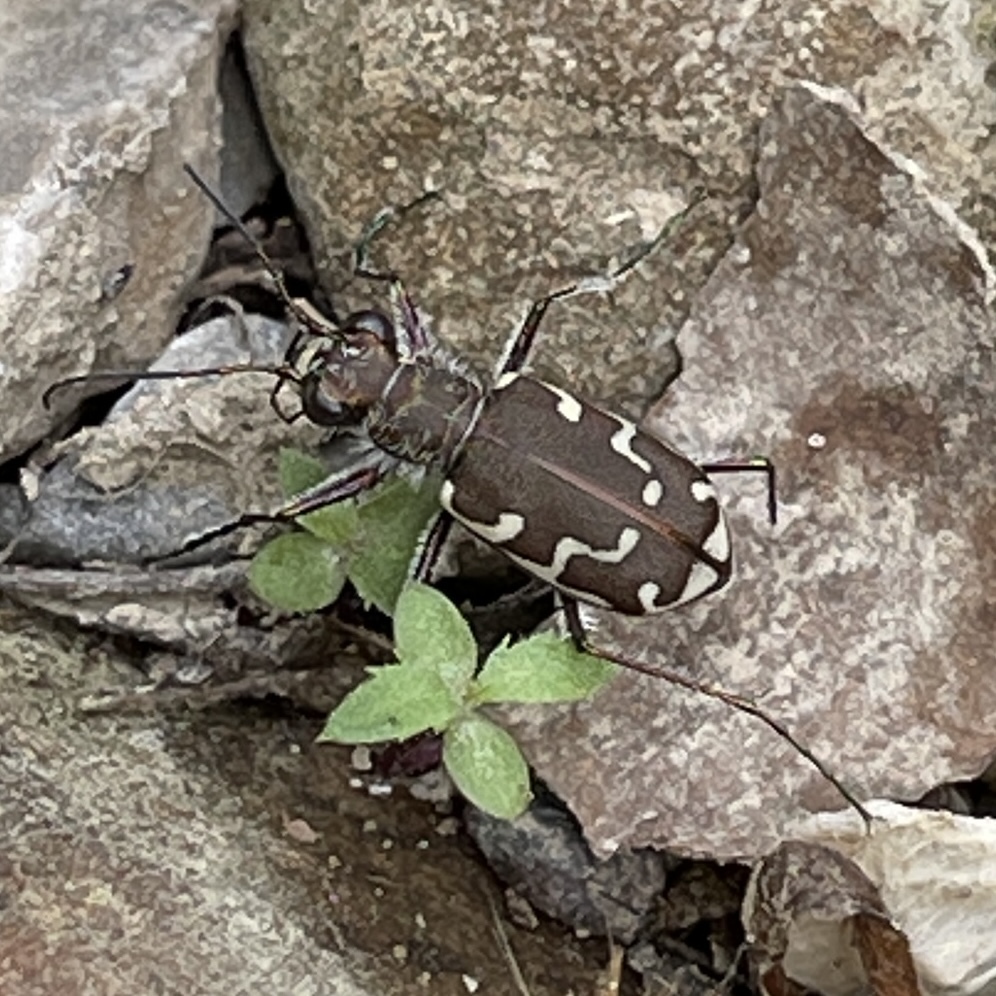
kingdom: Animalia
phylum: Arthropoda
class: Insecta
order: Coleoptera
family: Carabidae
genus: Cicindela
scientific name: Cicindela repanda
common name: Bronzed tiger beetle
